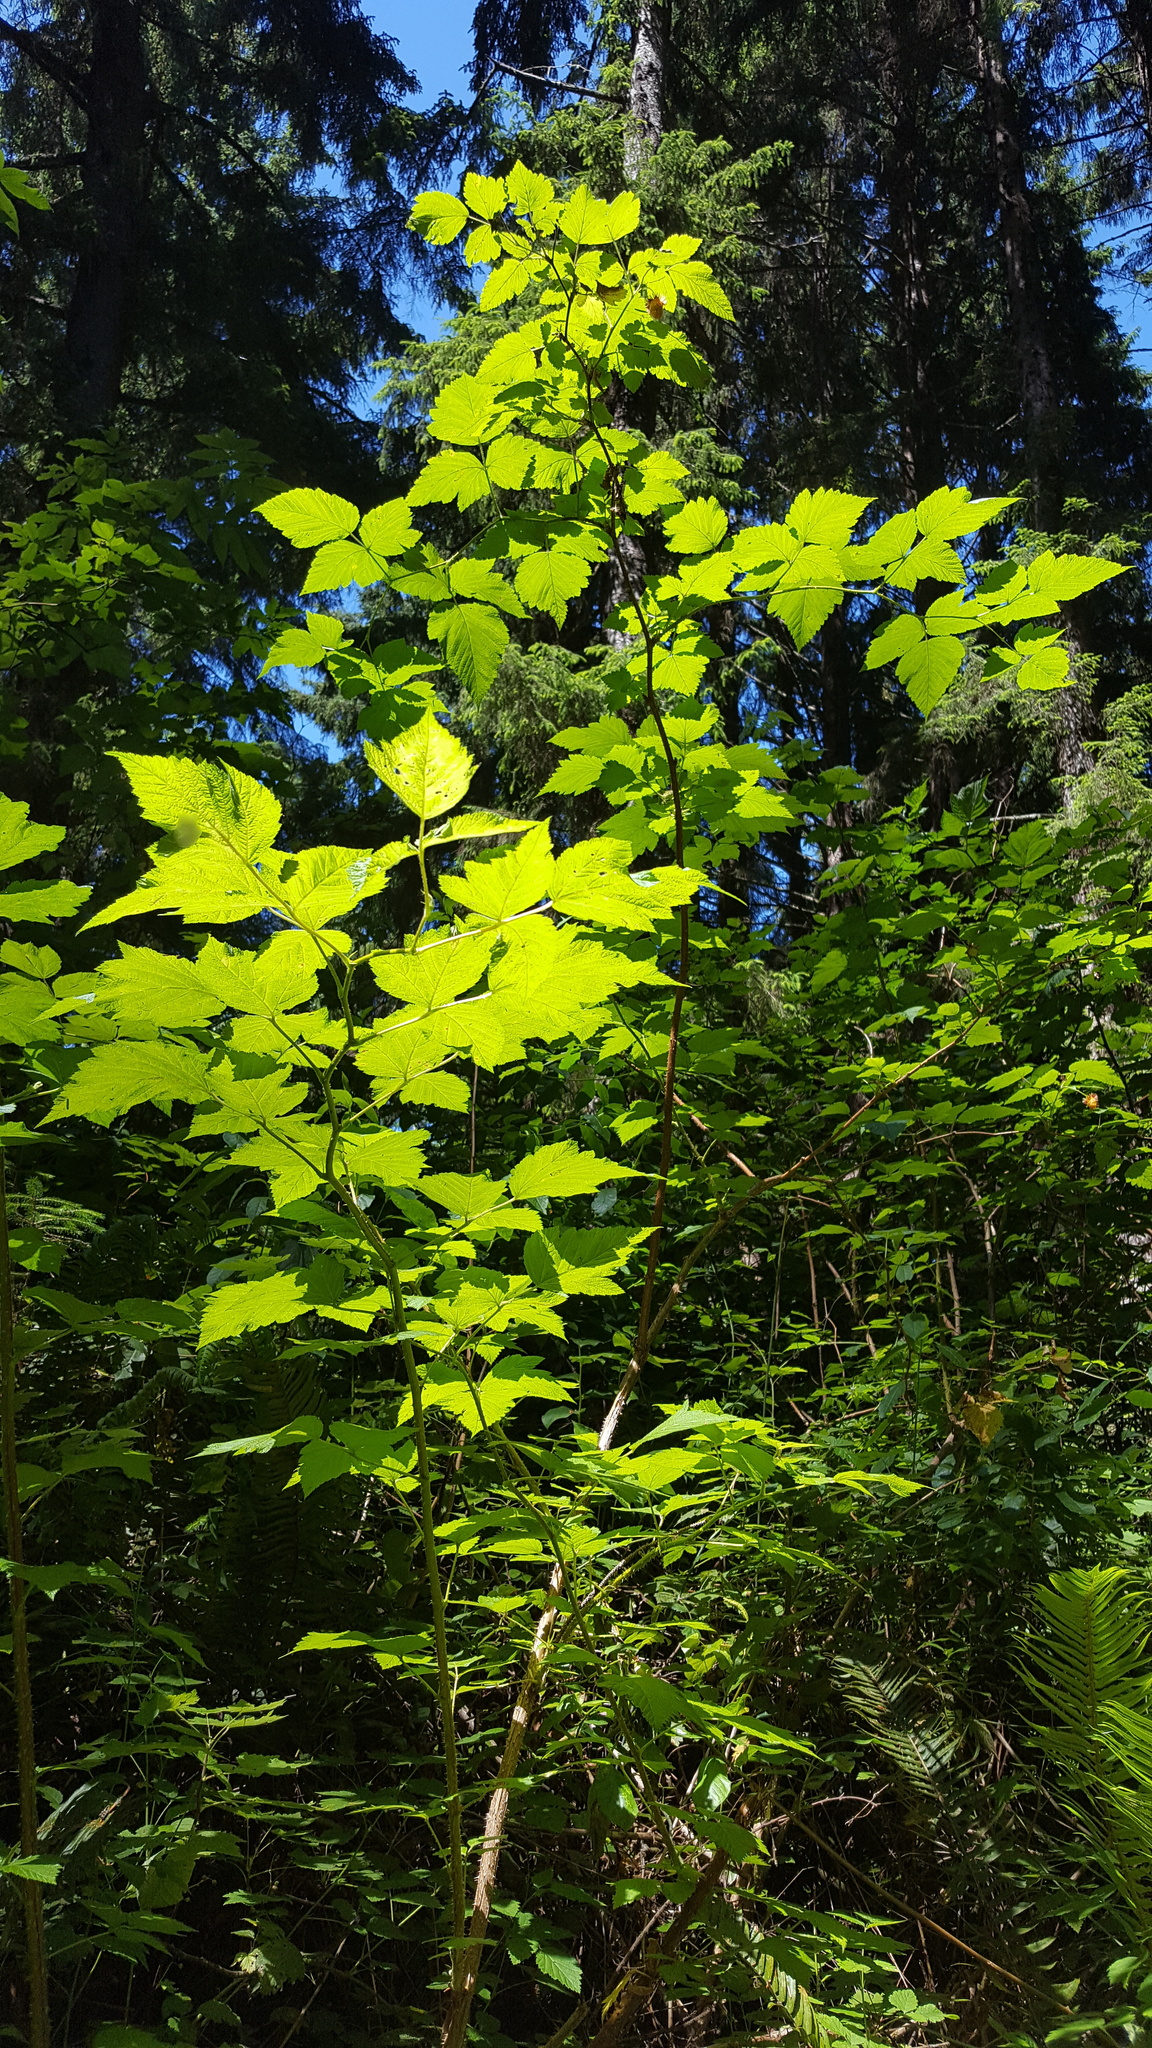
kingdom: Plantae
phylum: Tracheophyta
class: Magnoliopsida
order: Rosales
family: Rosaceae
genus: Rubus
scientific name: Rubus spectabilis
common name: Salmonberry
